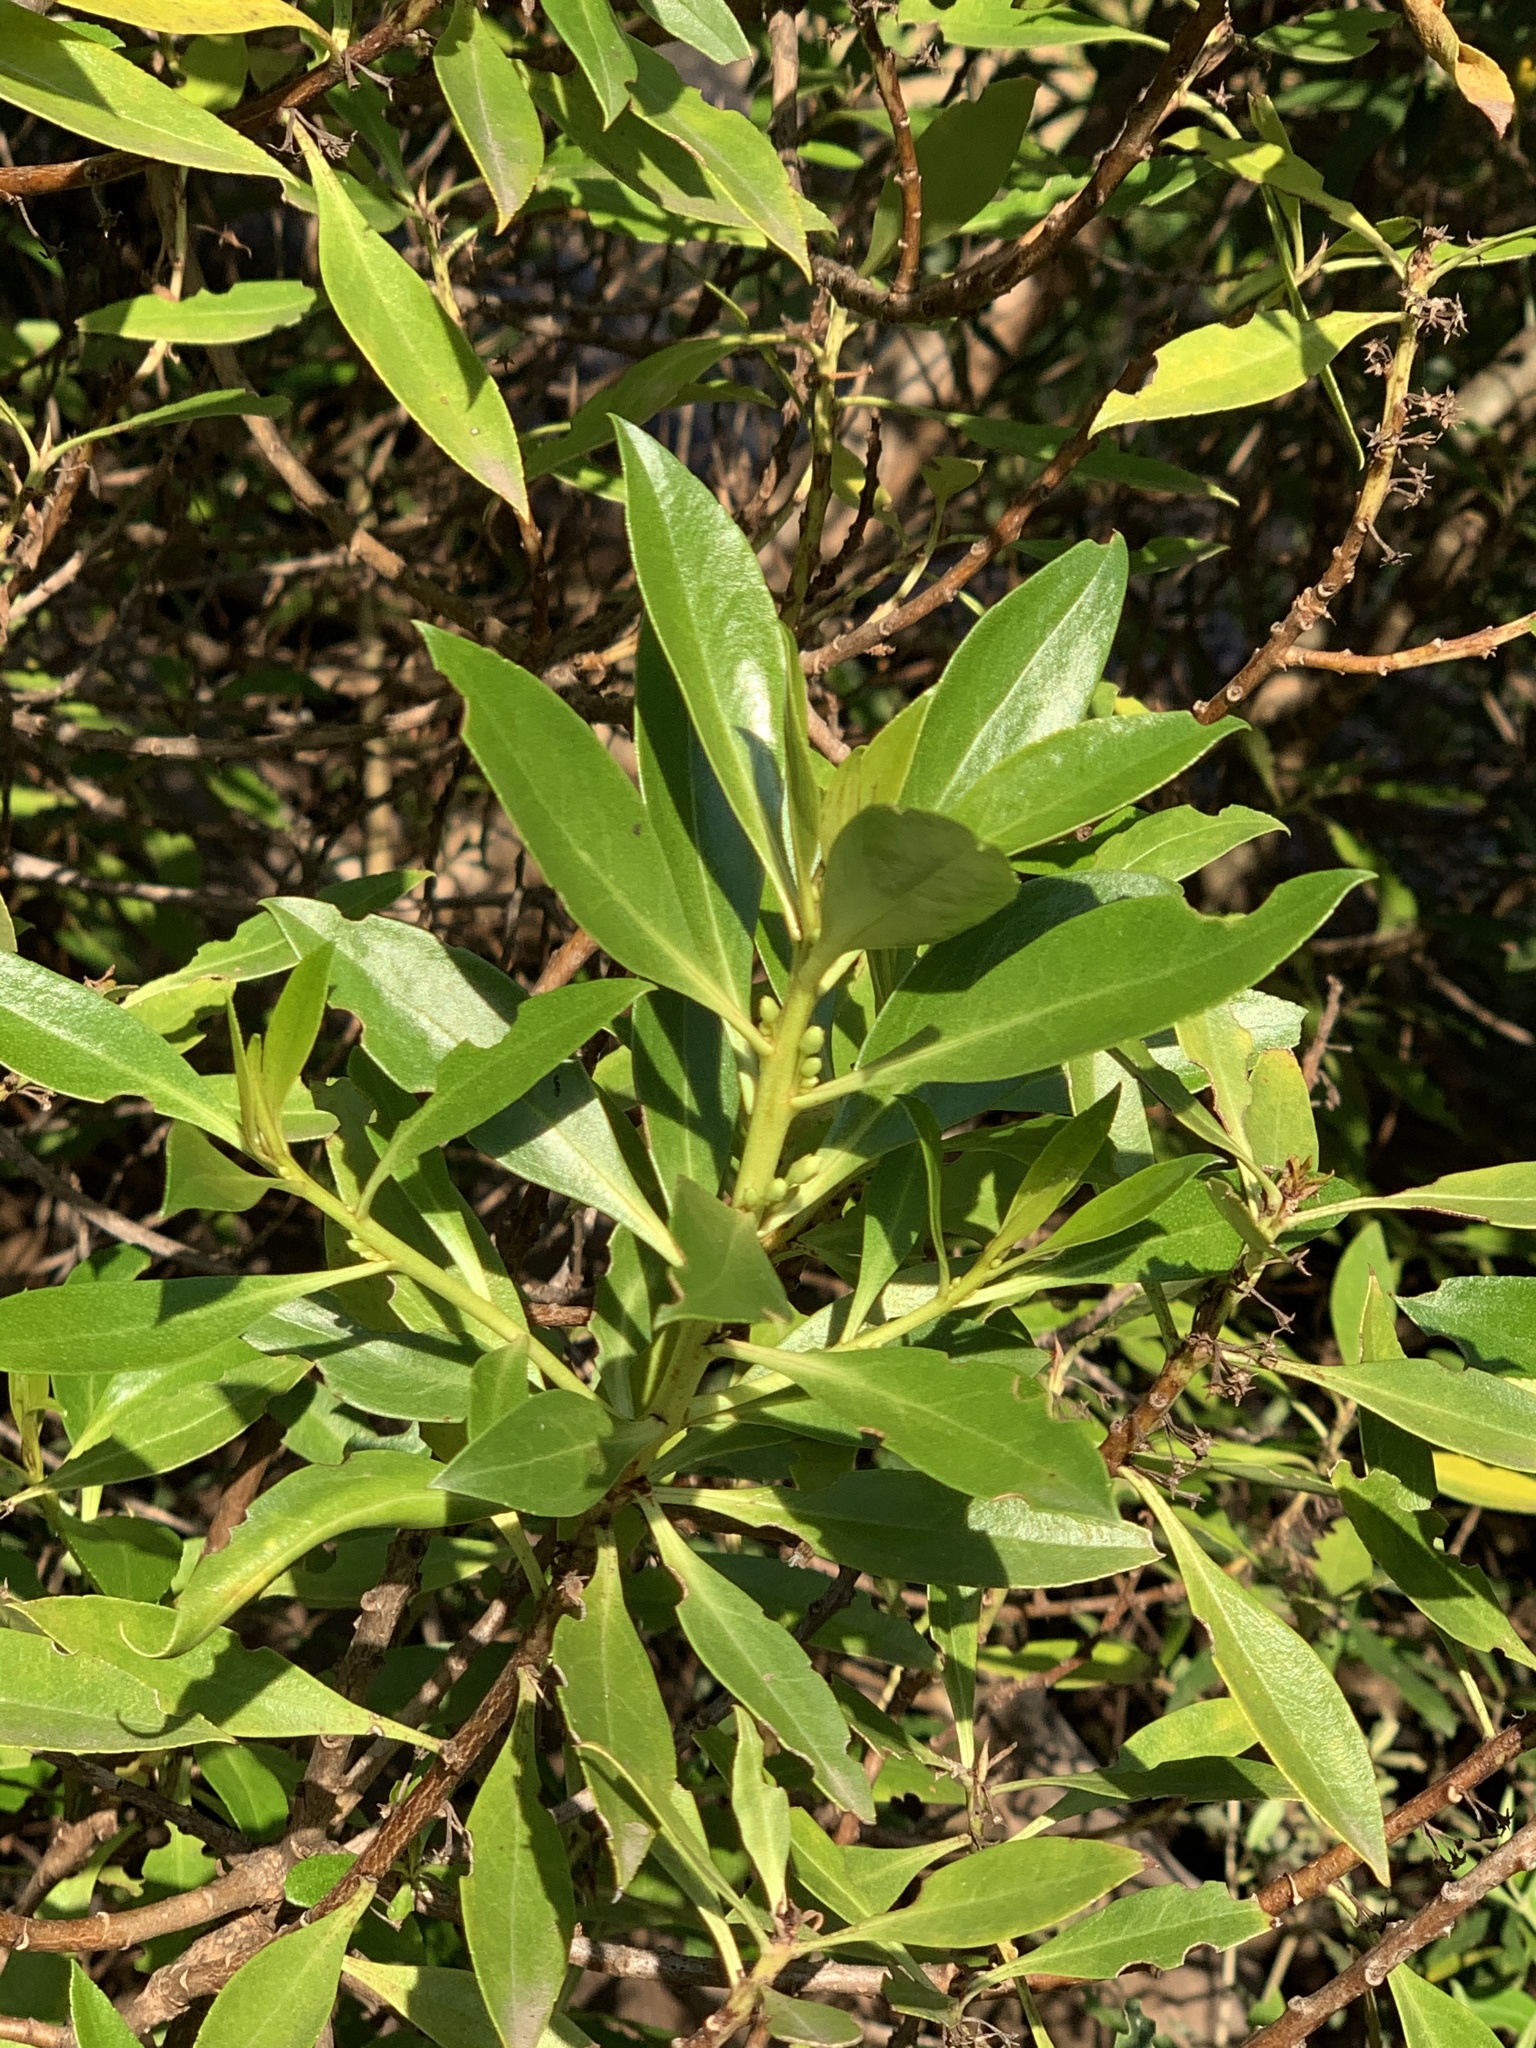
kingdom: Plantae
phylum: Tracheophyta
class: Magnoliopsida
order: Lamiales
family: Scrophulariaceae
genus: Myoporum
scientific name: Myoporum laetum
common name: Ngaio tree
